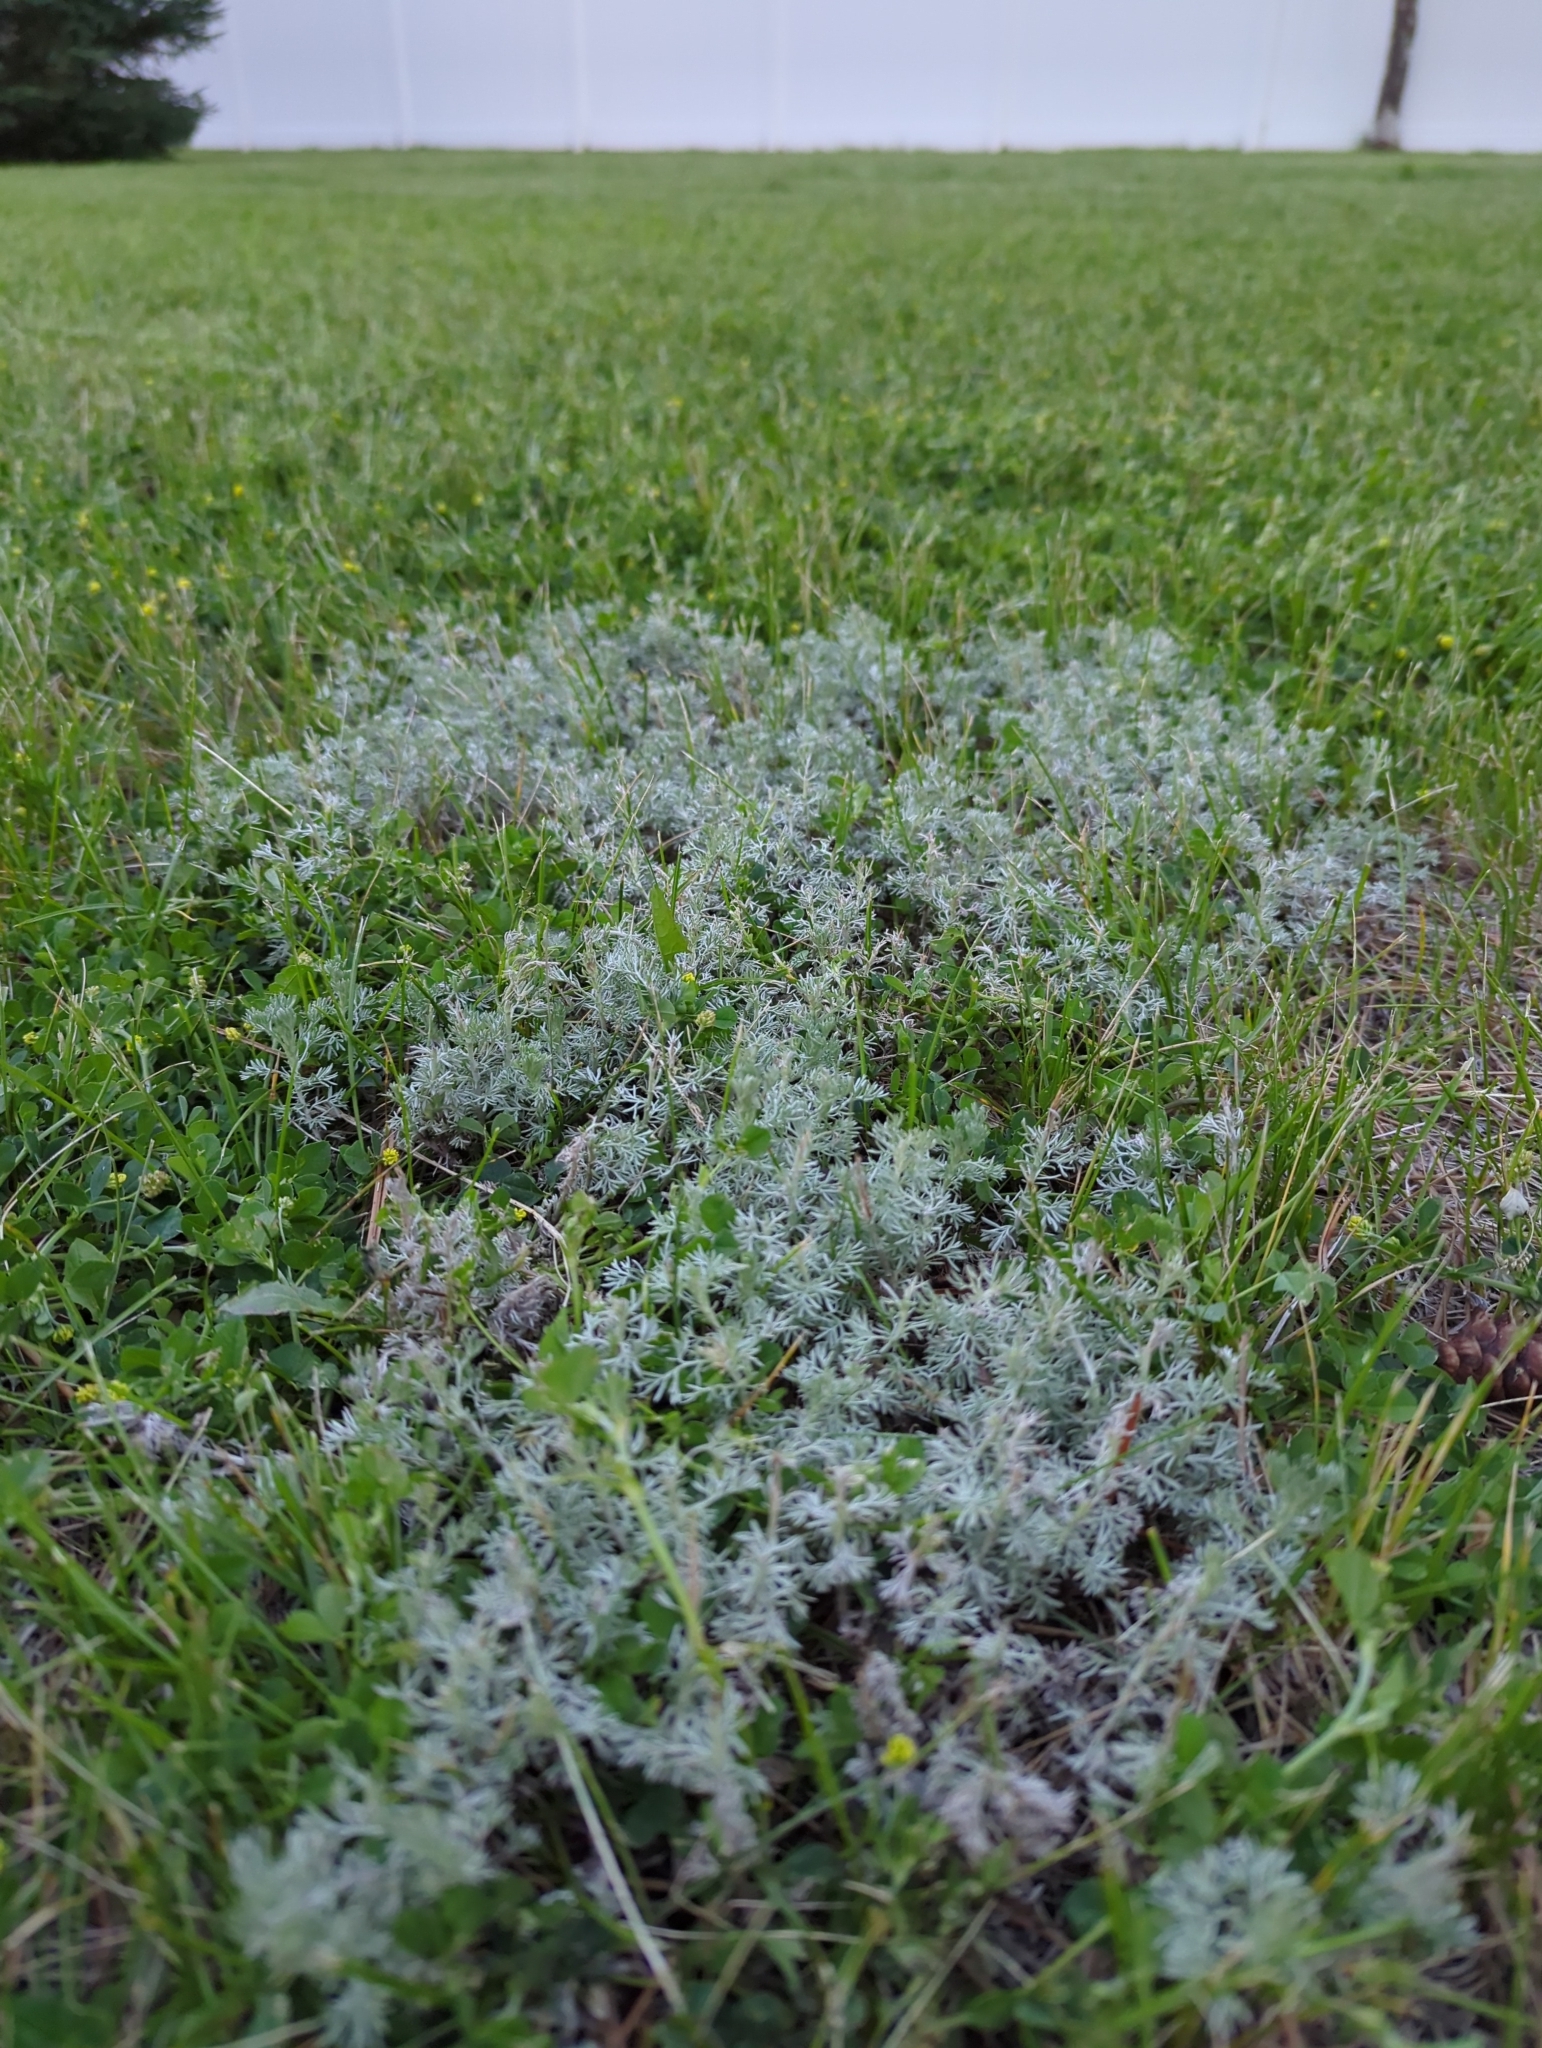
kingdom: Plantae
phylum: Tracheophyta
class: Magnoliopsida
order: Asterales
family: Asteraceae
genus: Artemisia
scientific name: Artemisia frigida
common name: Prairie sagewort
